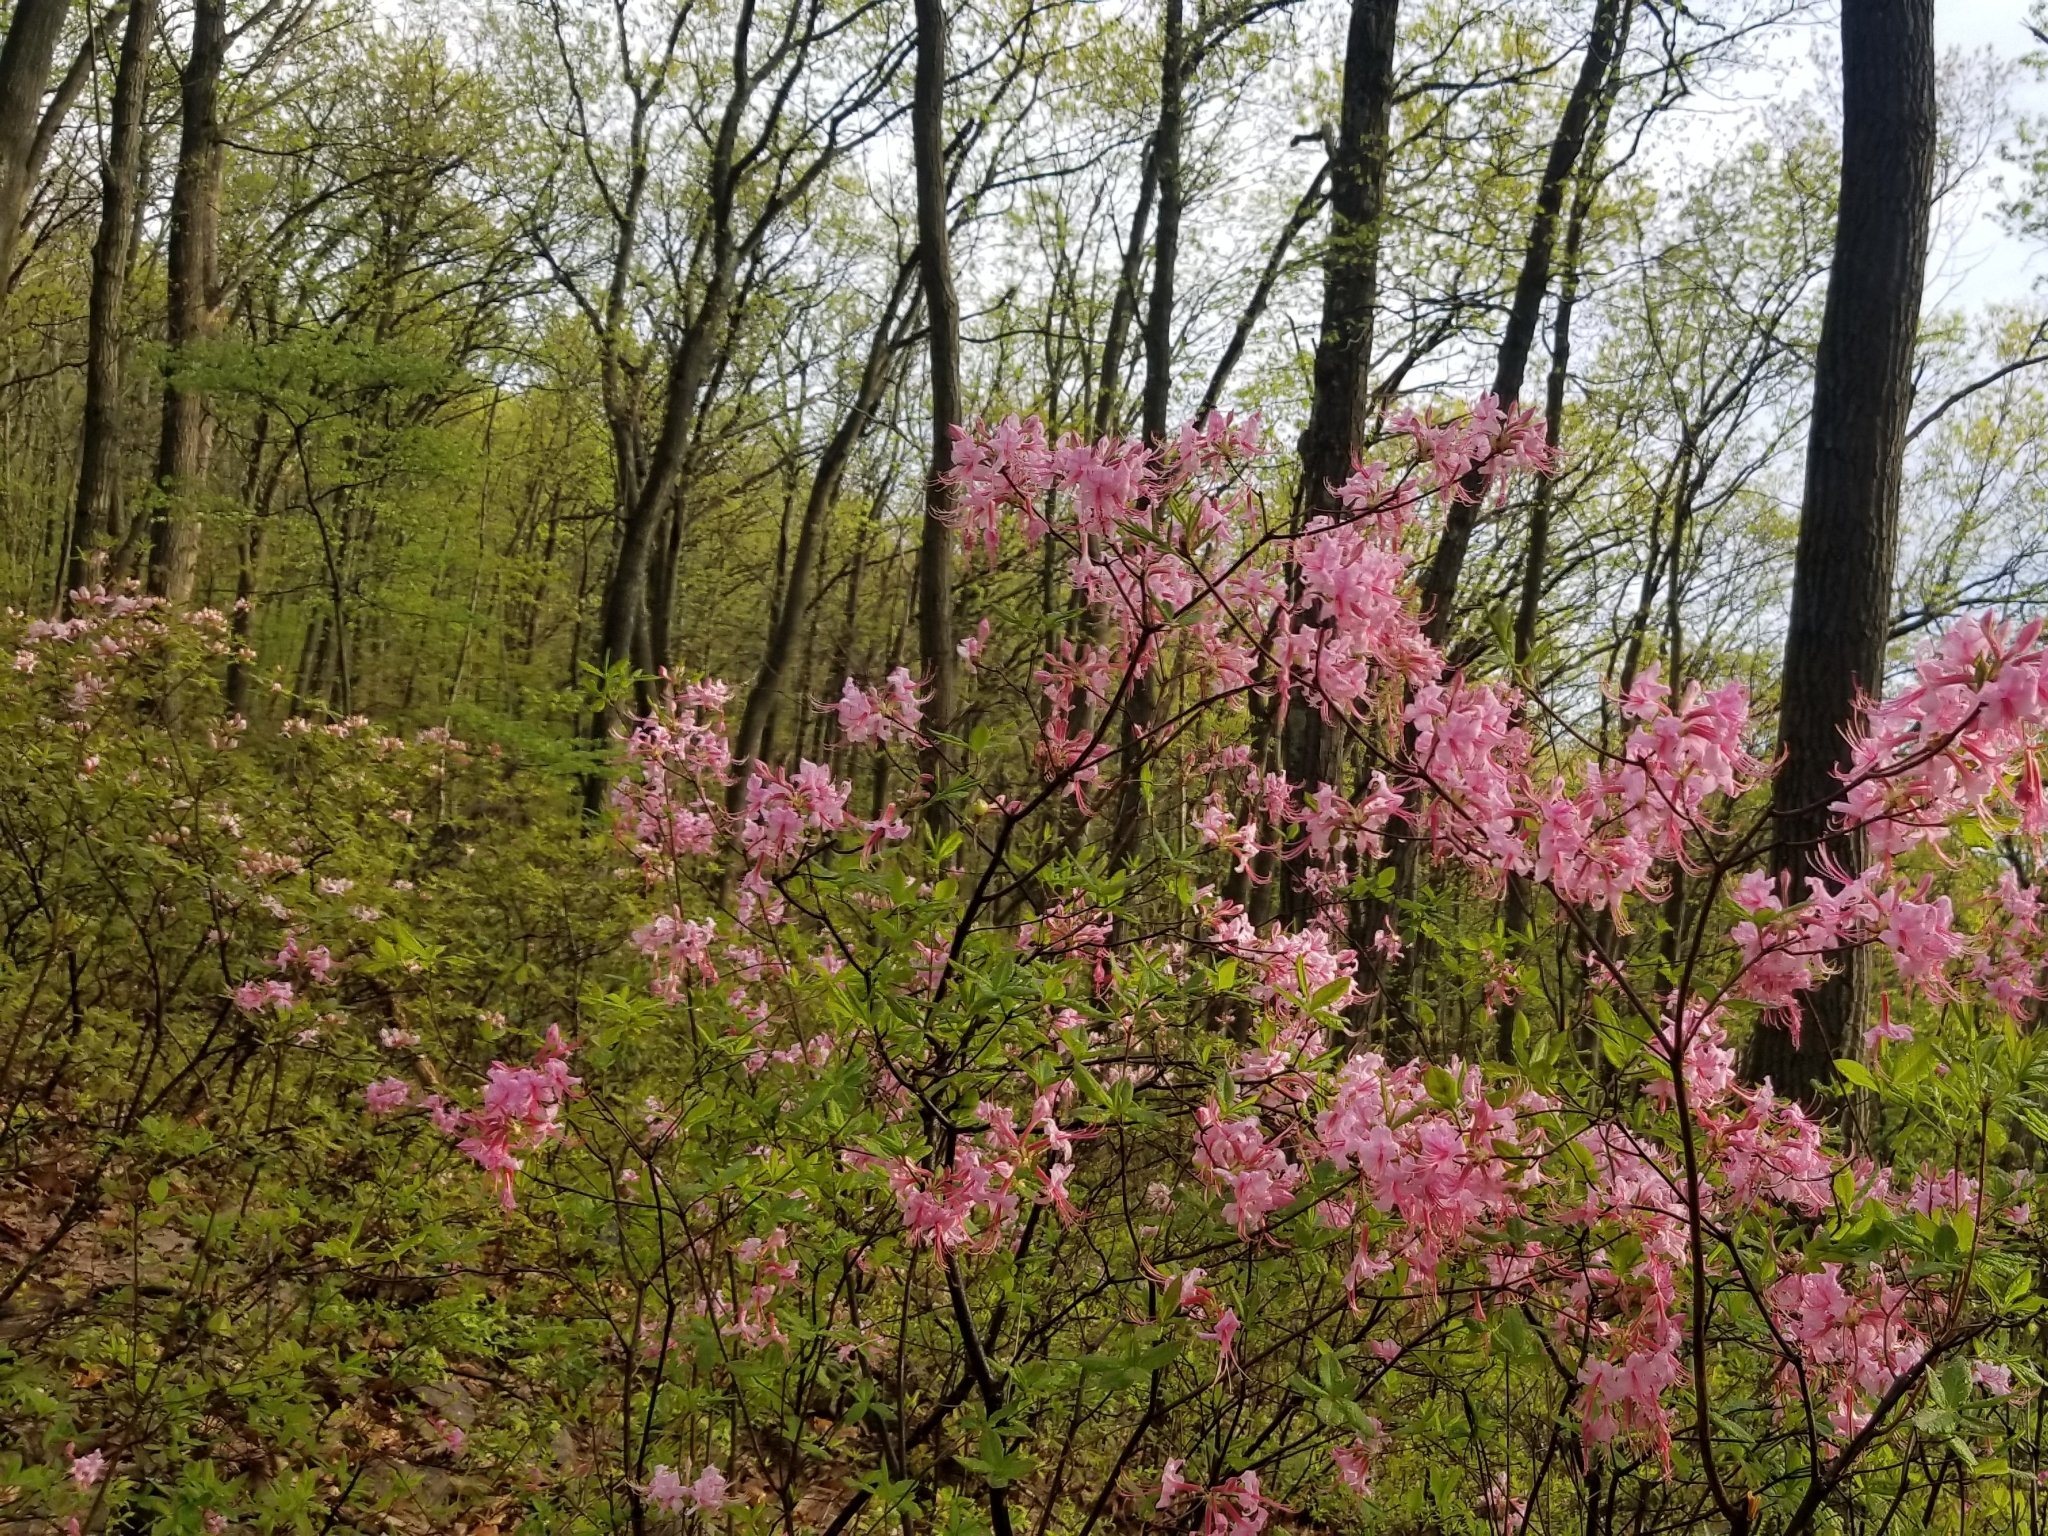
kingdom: Plantae
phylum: Tracheophyta
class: Magnoliopsida
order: Ericales
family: Ericaceae
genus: Rhododendron
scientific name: Rhododendron roseum
